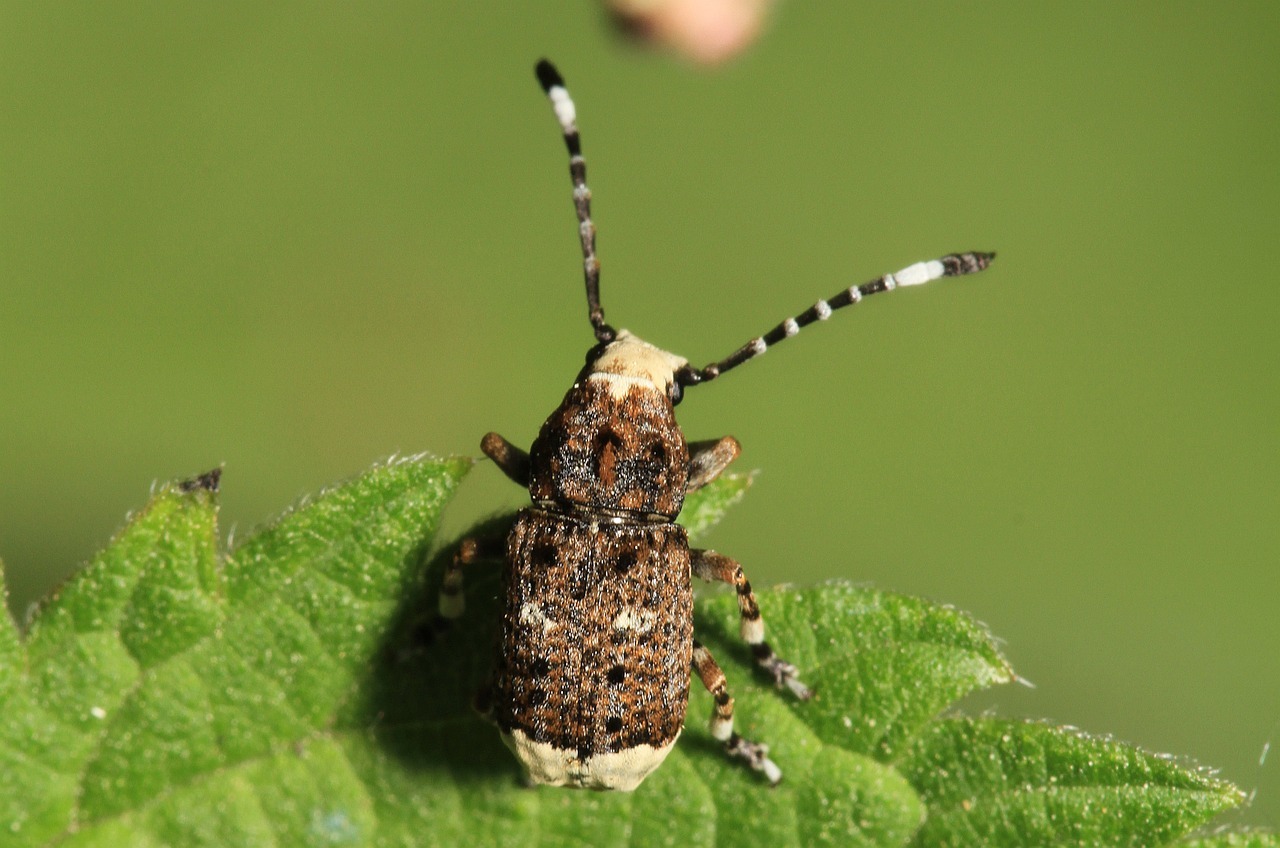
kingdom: Animalia
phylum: Arthropoda
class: Insecta
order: Coleoptera
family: Anthribidae
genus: Platystomos
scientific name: Platystomos albinus
